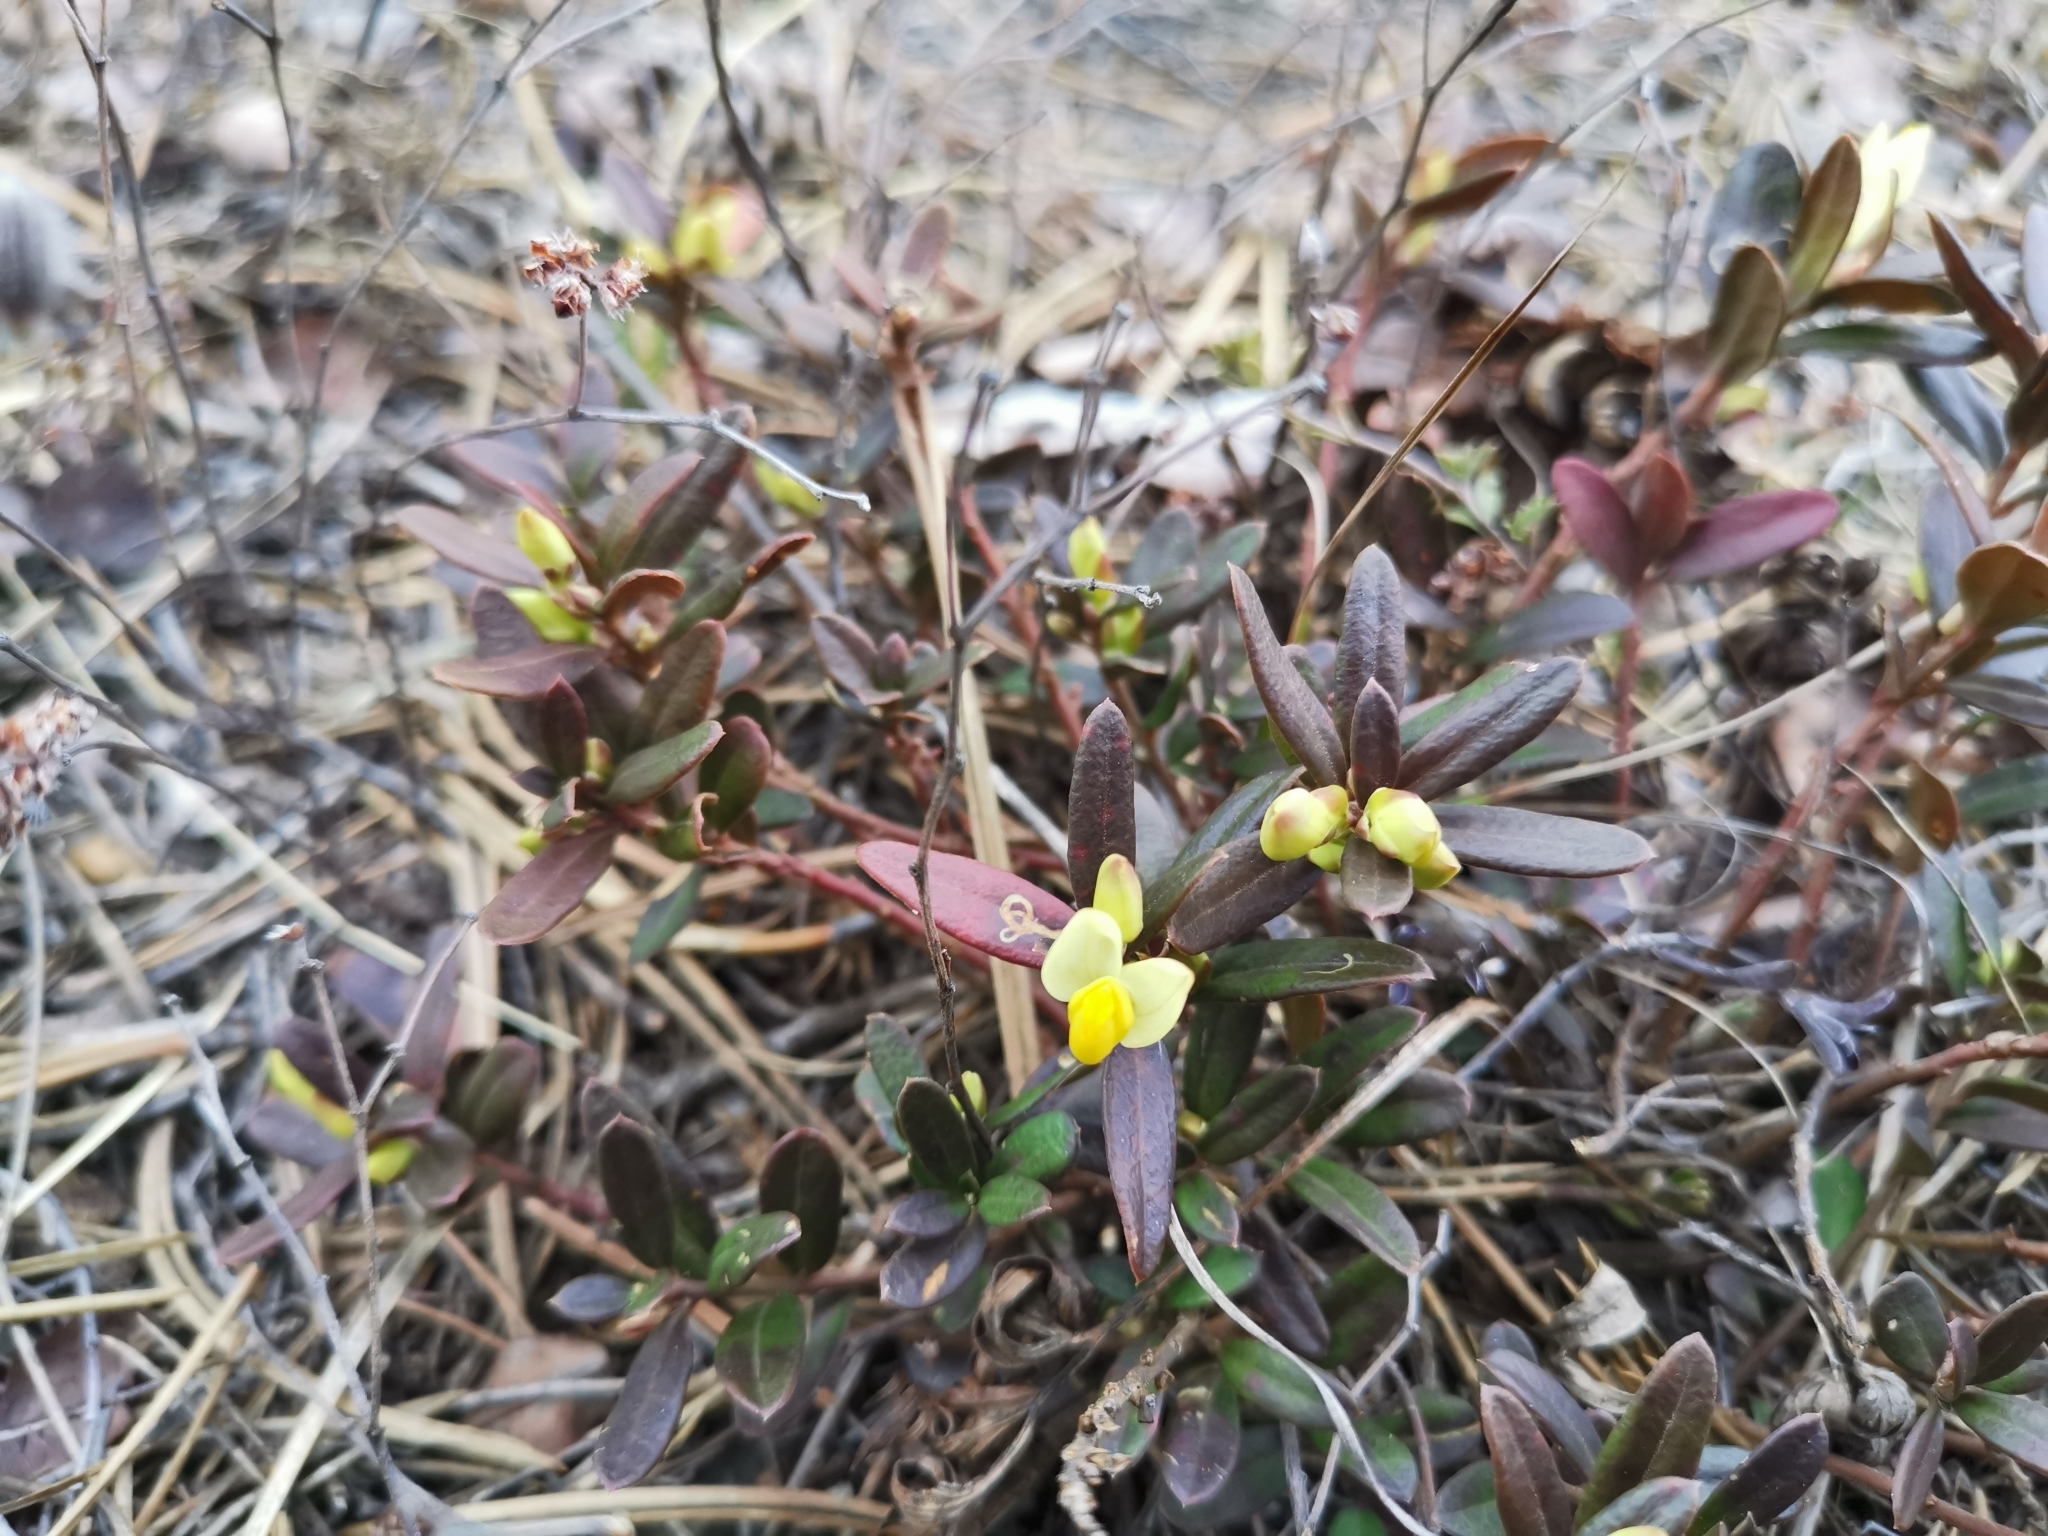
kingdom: Plantae
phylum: Tracheophyta
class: Magnoliopsida
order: Fabales
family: Polygalaceae
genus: Polygaloides
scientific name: Polygaloides chamaebuxus
